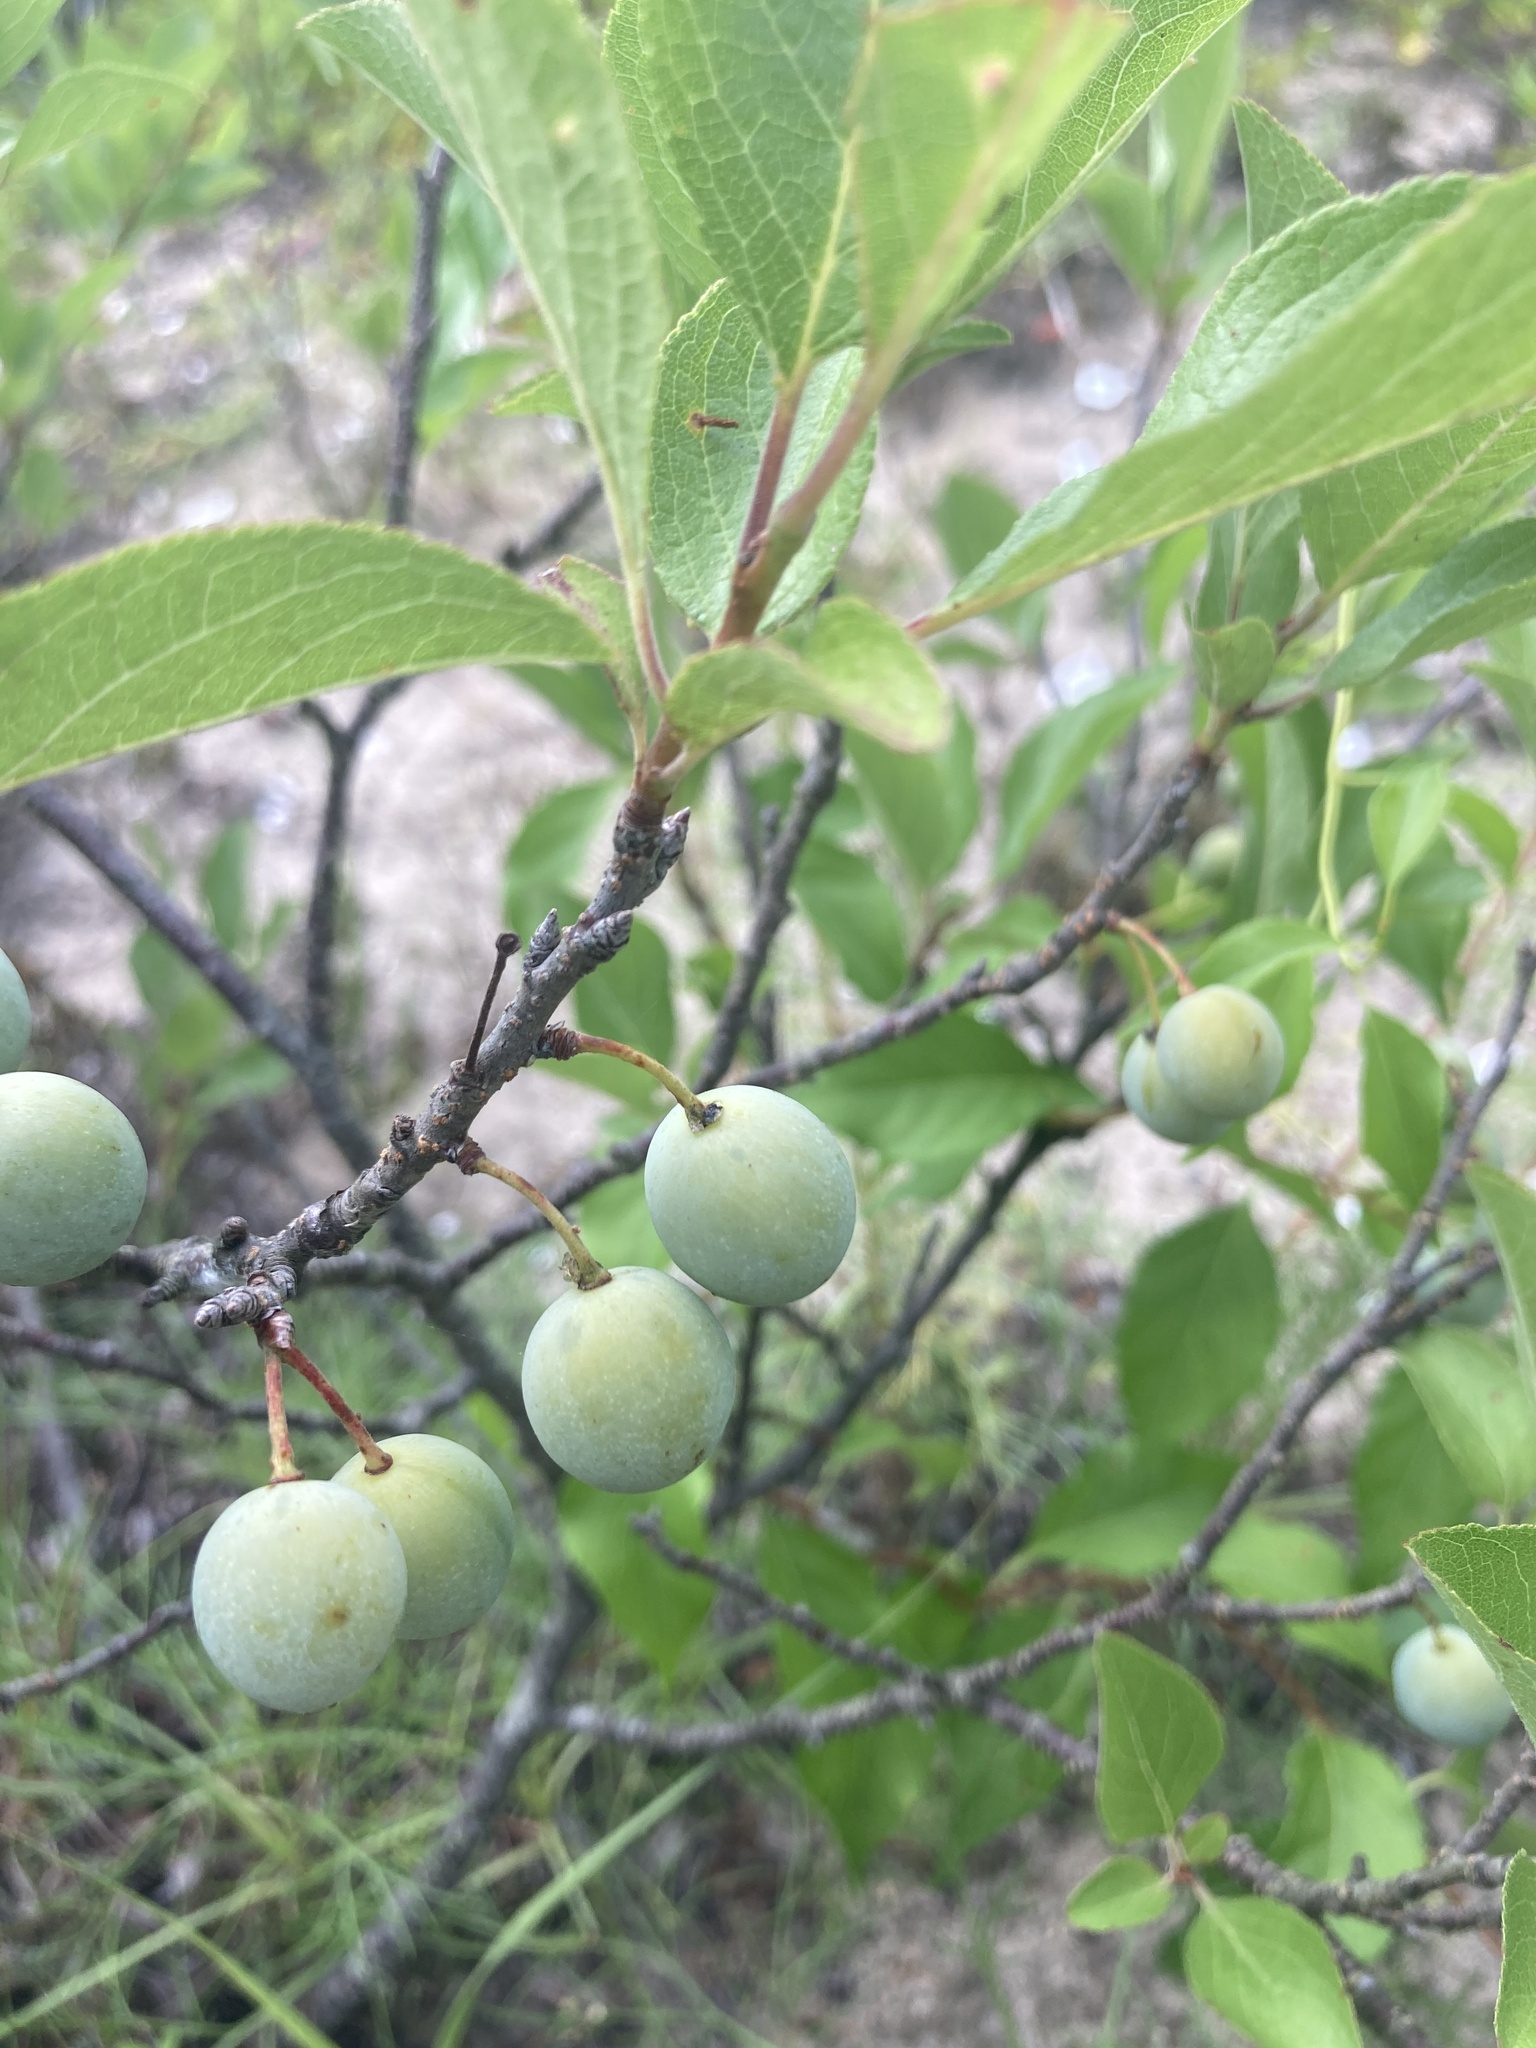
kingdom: Plantae
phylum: Tracheophyta
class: Magnoliopsida
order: Rosales
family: Rosaceae
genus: Prunus
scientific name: Prunus maritima
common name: Beach plum
